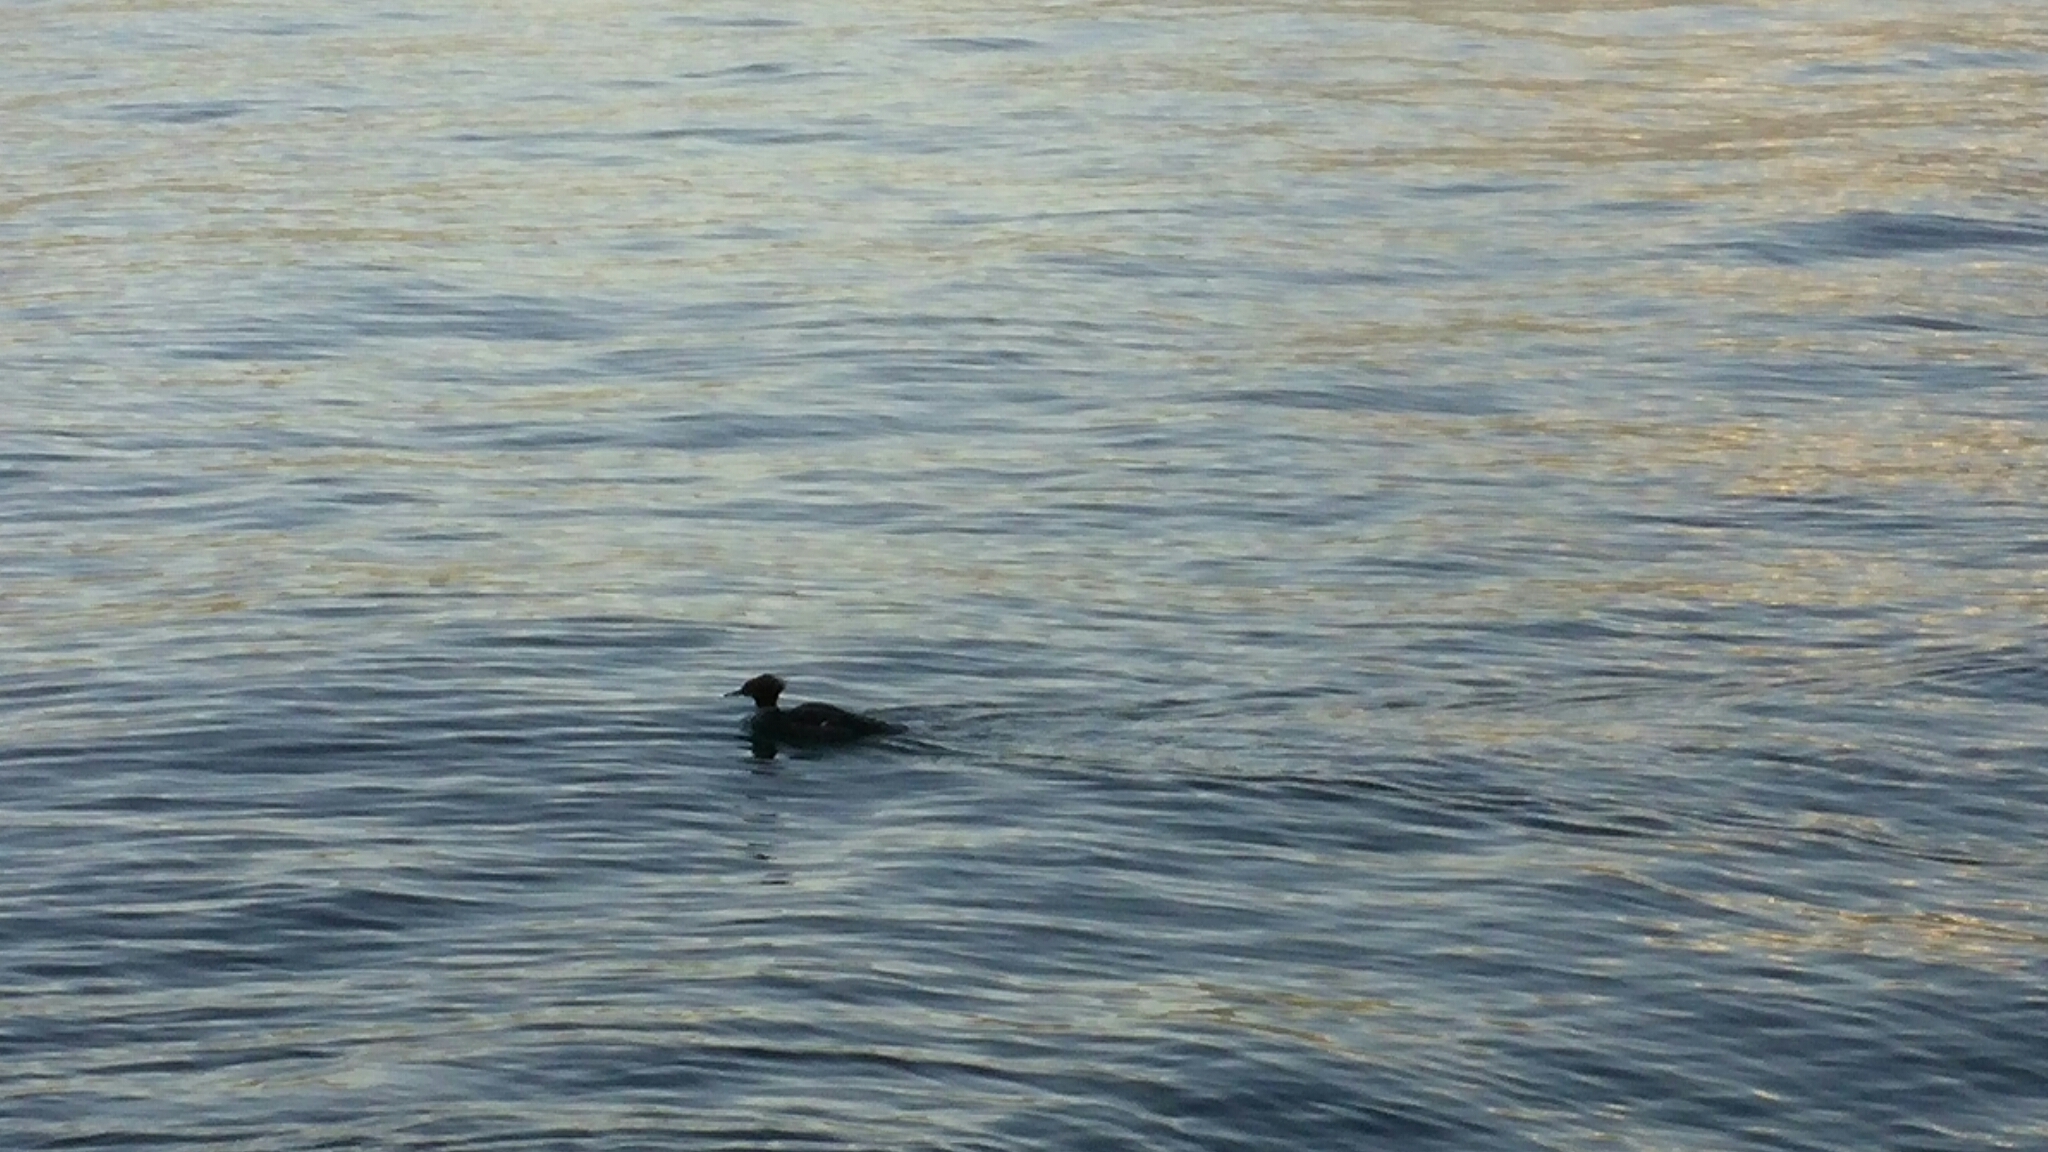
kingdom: Animalia
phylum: Chordata
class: Aves
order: Anseriformes
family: Anatidae
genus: Mergus
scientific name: Mergus merganser
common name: Common merganser
